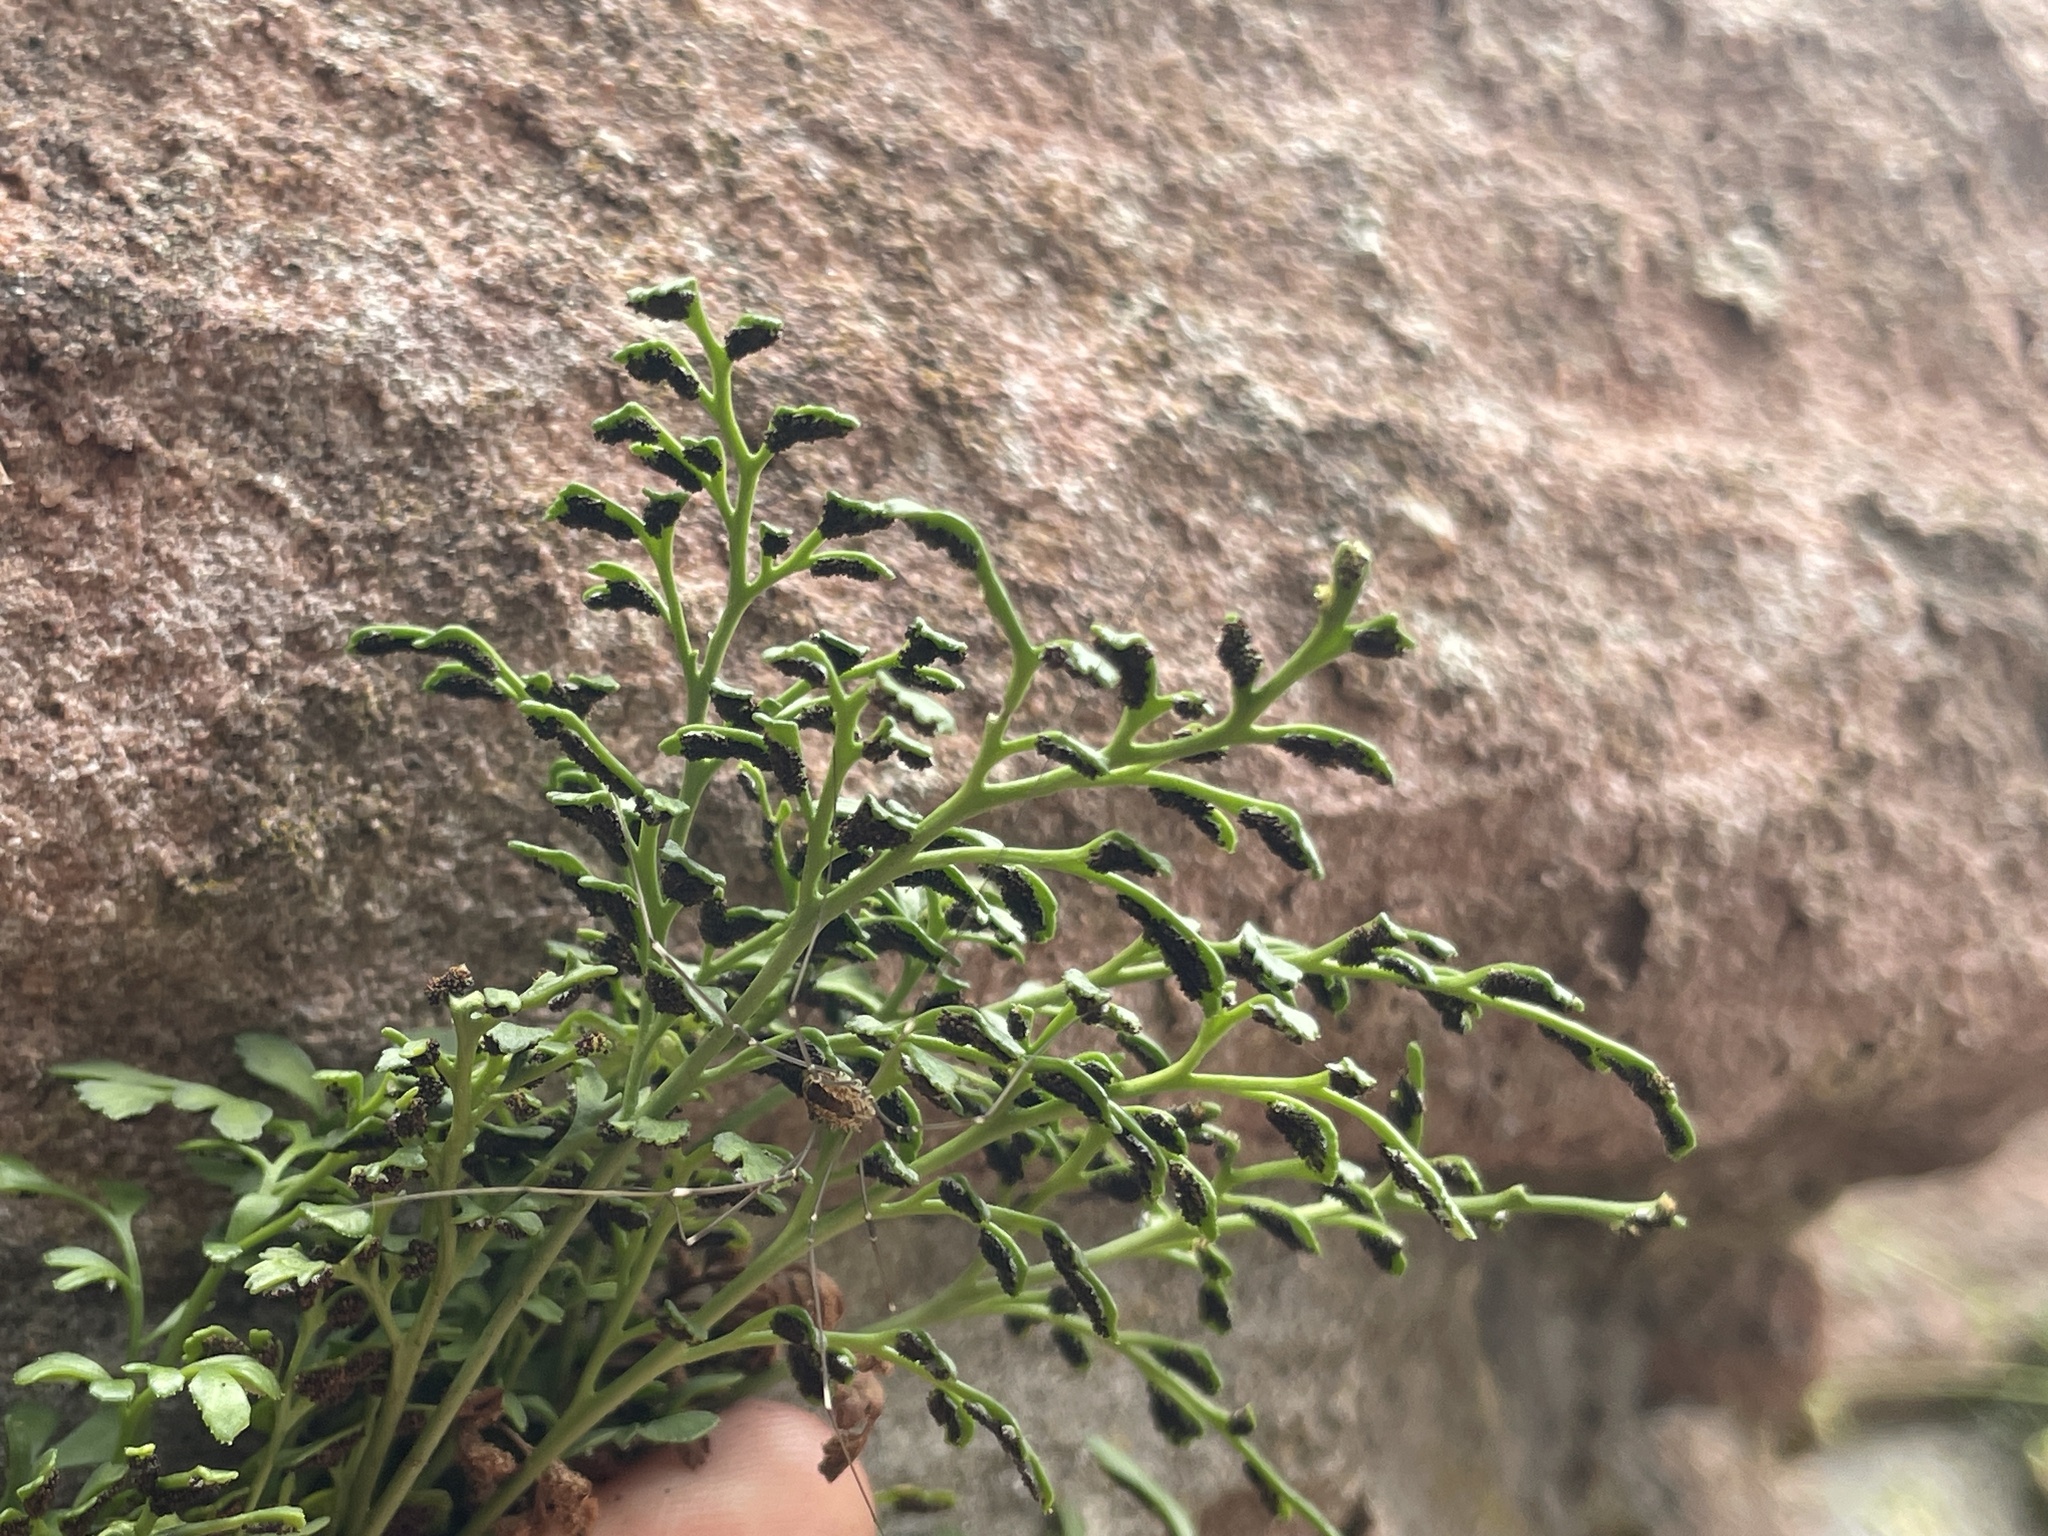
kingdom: Plantae
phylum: Tracheophyta
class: Polypodiopsida
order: Polypodiales
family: Aspleniaceae
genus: Asplenium
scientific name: Asplenium ruta-muraria
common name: Wall-rue
